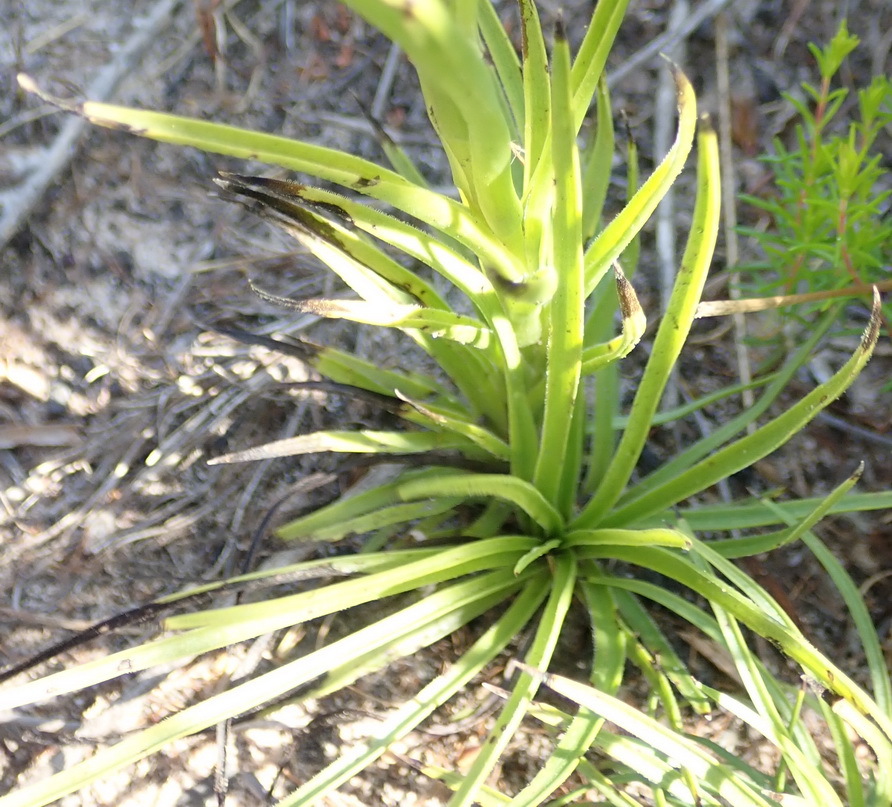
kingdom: Plantae
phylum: Tracheophyta
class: Liliopsida
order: Asparagales
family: Orchidaceae
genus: Ceratandra
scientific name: Ceratandra grandiflora
